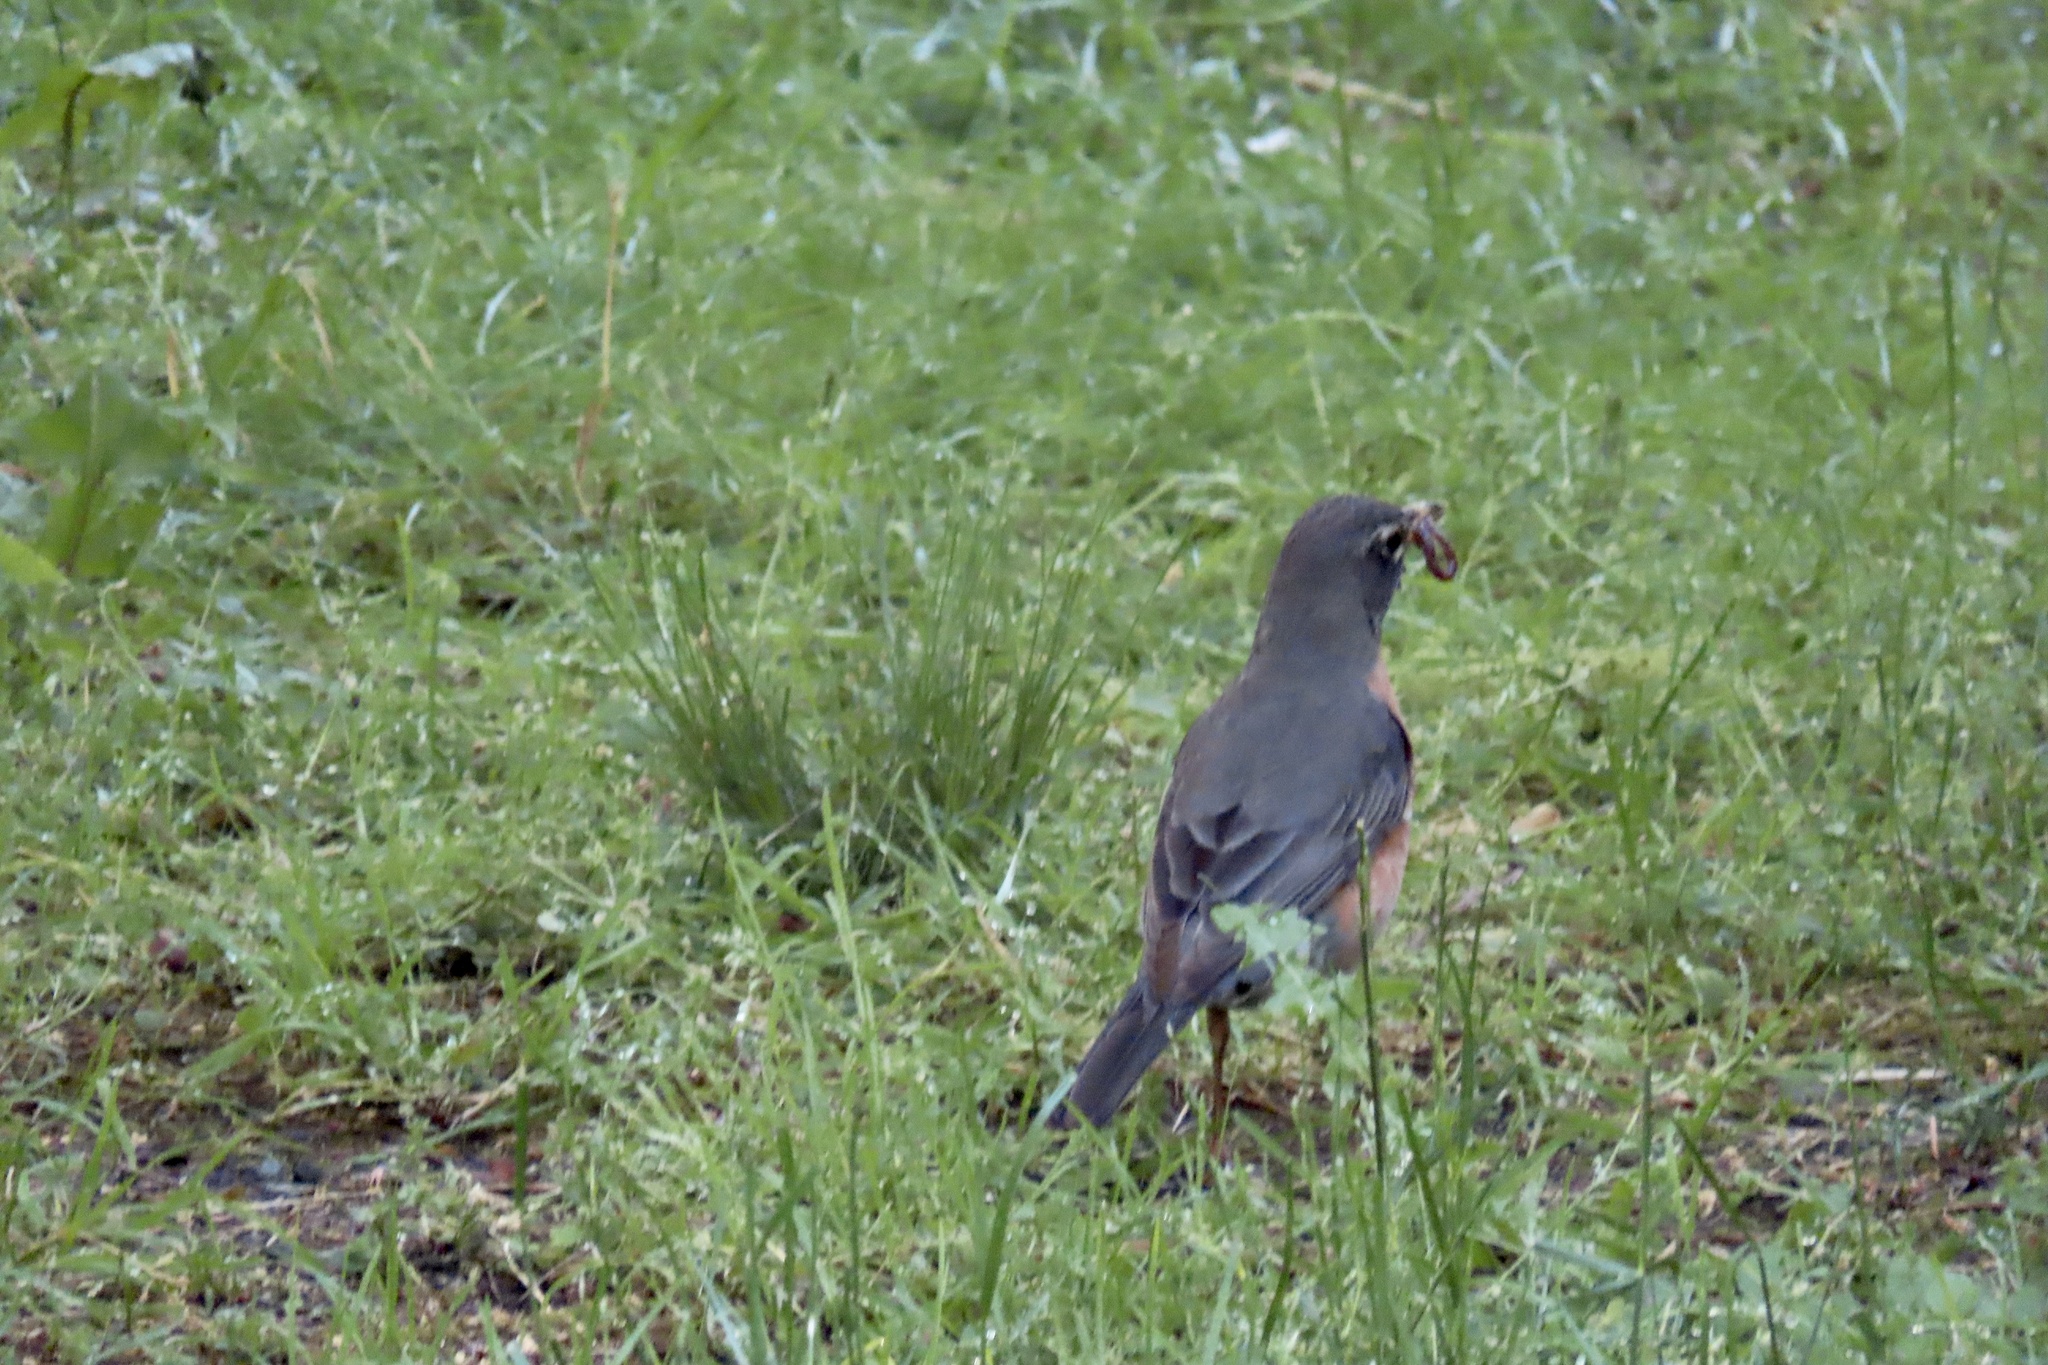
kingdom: Animalia
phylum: Chordata
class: Aves
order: Passeriformes
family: Turdidae
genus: Turdus
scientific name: Turdus migratorius
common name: American robin
